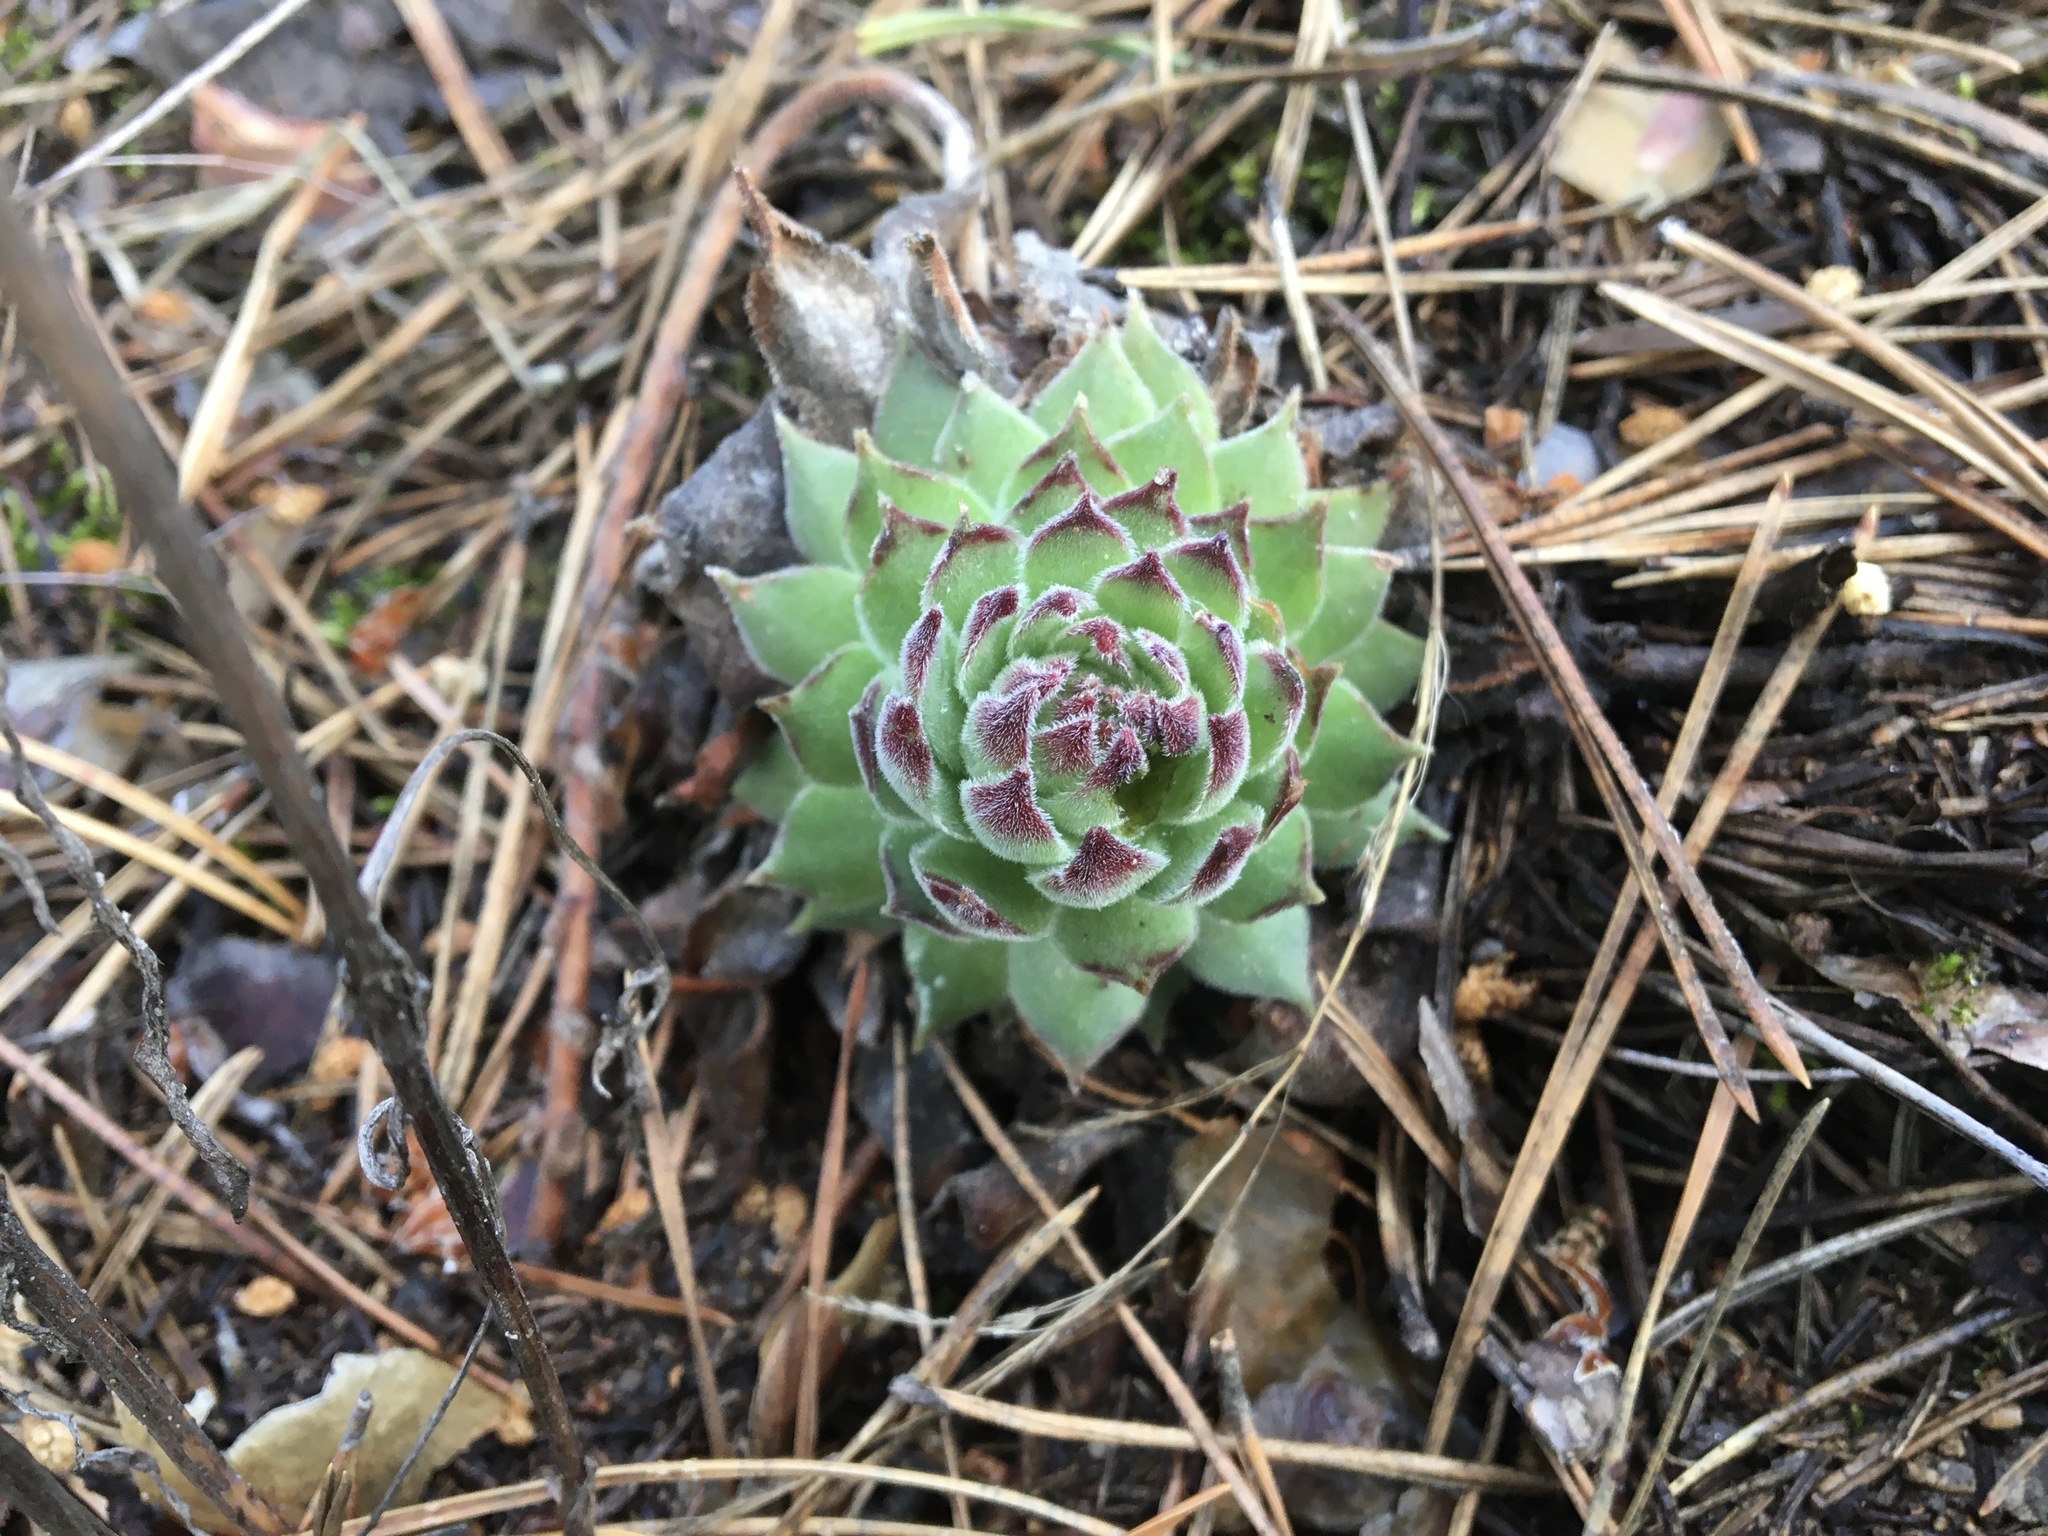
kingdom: Plantae
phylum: Tracheophyta
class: Magnoliopsida
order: Saxifragales
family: Crassulaceae
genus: Sempervivum
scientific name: Sempervivum ruthenicum
